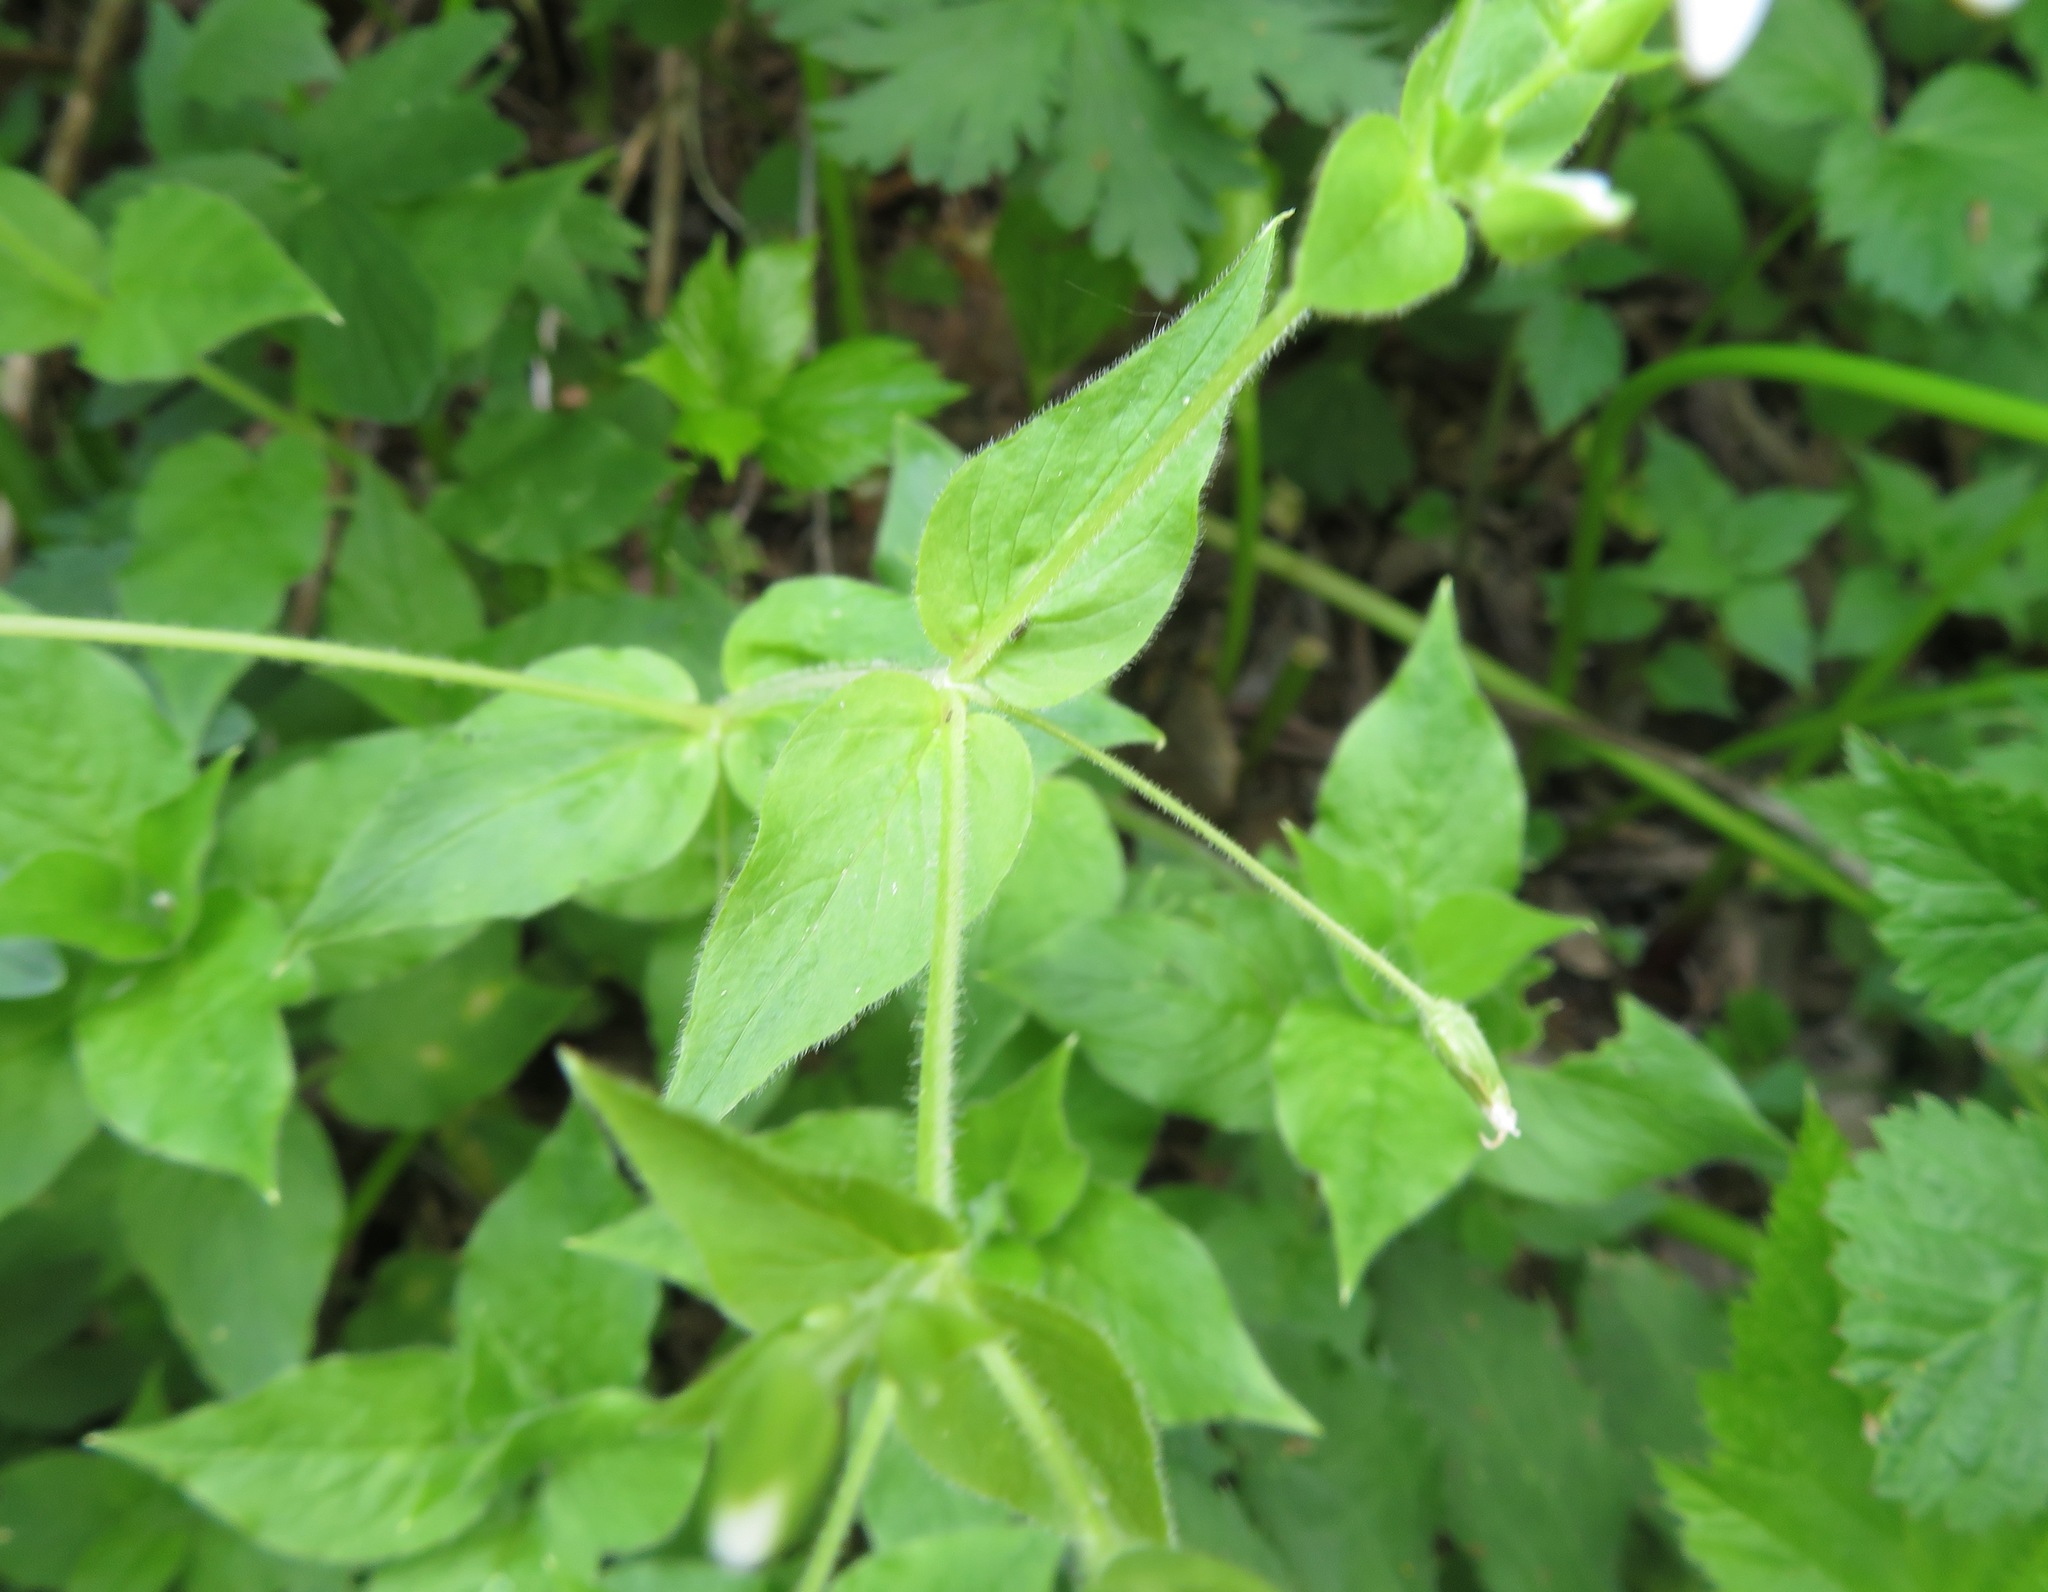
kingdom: Plantae
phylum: Tracheophyta
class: Magnoliopsida
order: Caryophyllales
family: Caryophyllaceae
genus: Stellaria
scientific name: Stellaria nemorum
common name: Wood stitchwort
